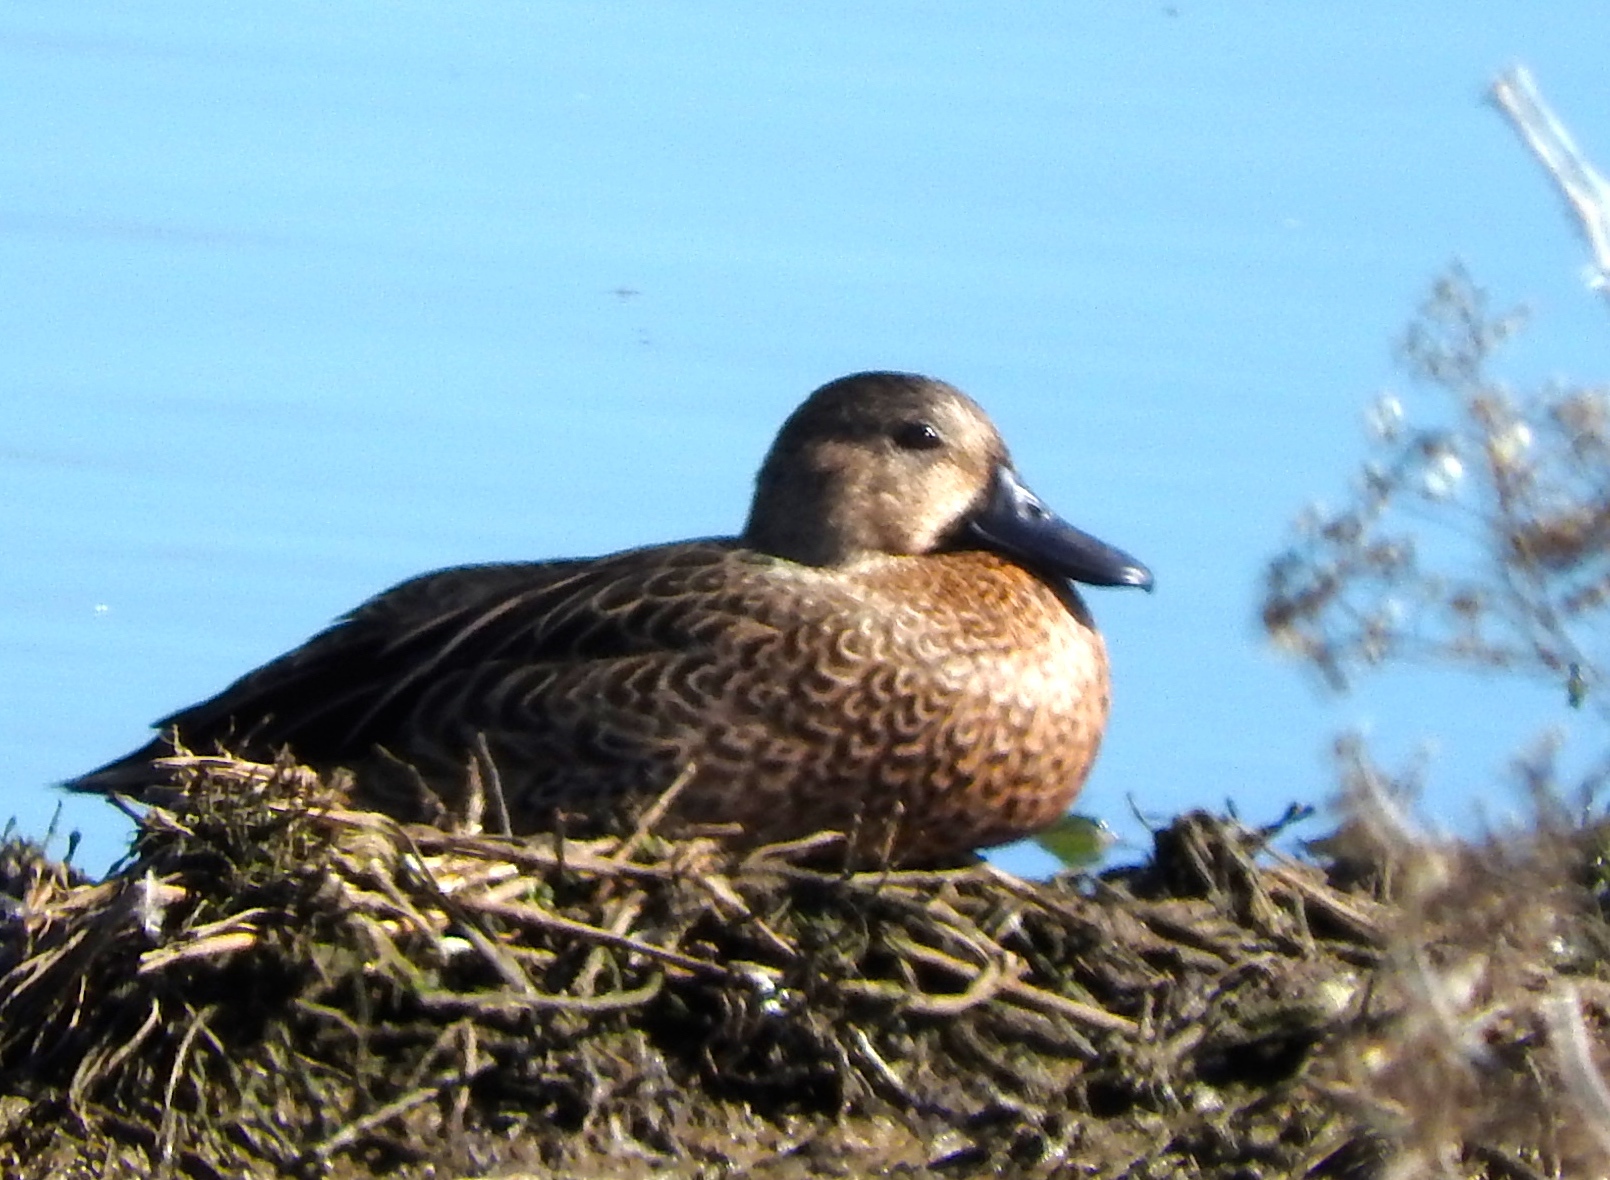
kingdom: Animalia
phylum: Chordata
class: Aves
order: Anseriformes
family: Anatidae
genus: Spatula
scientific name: Spatula discors
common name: Blue-winged teal
